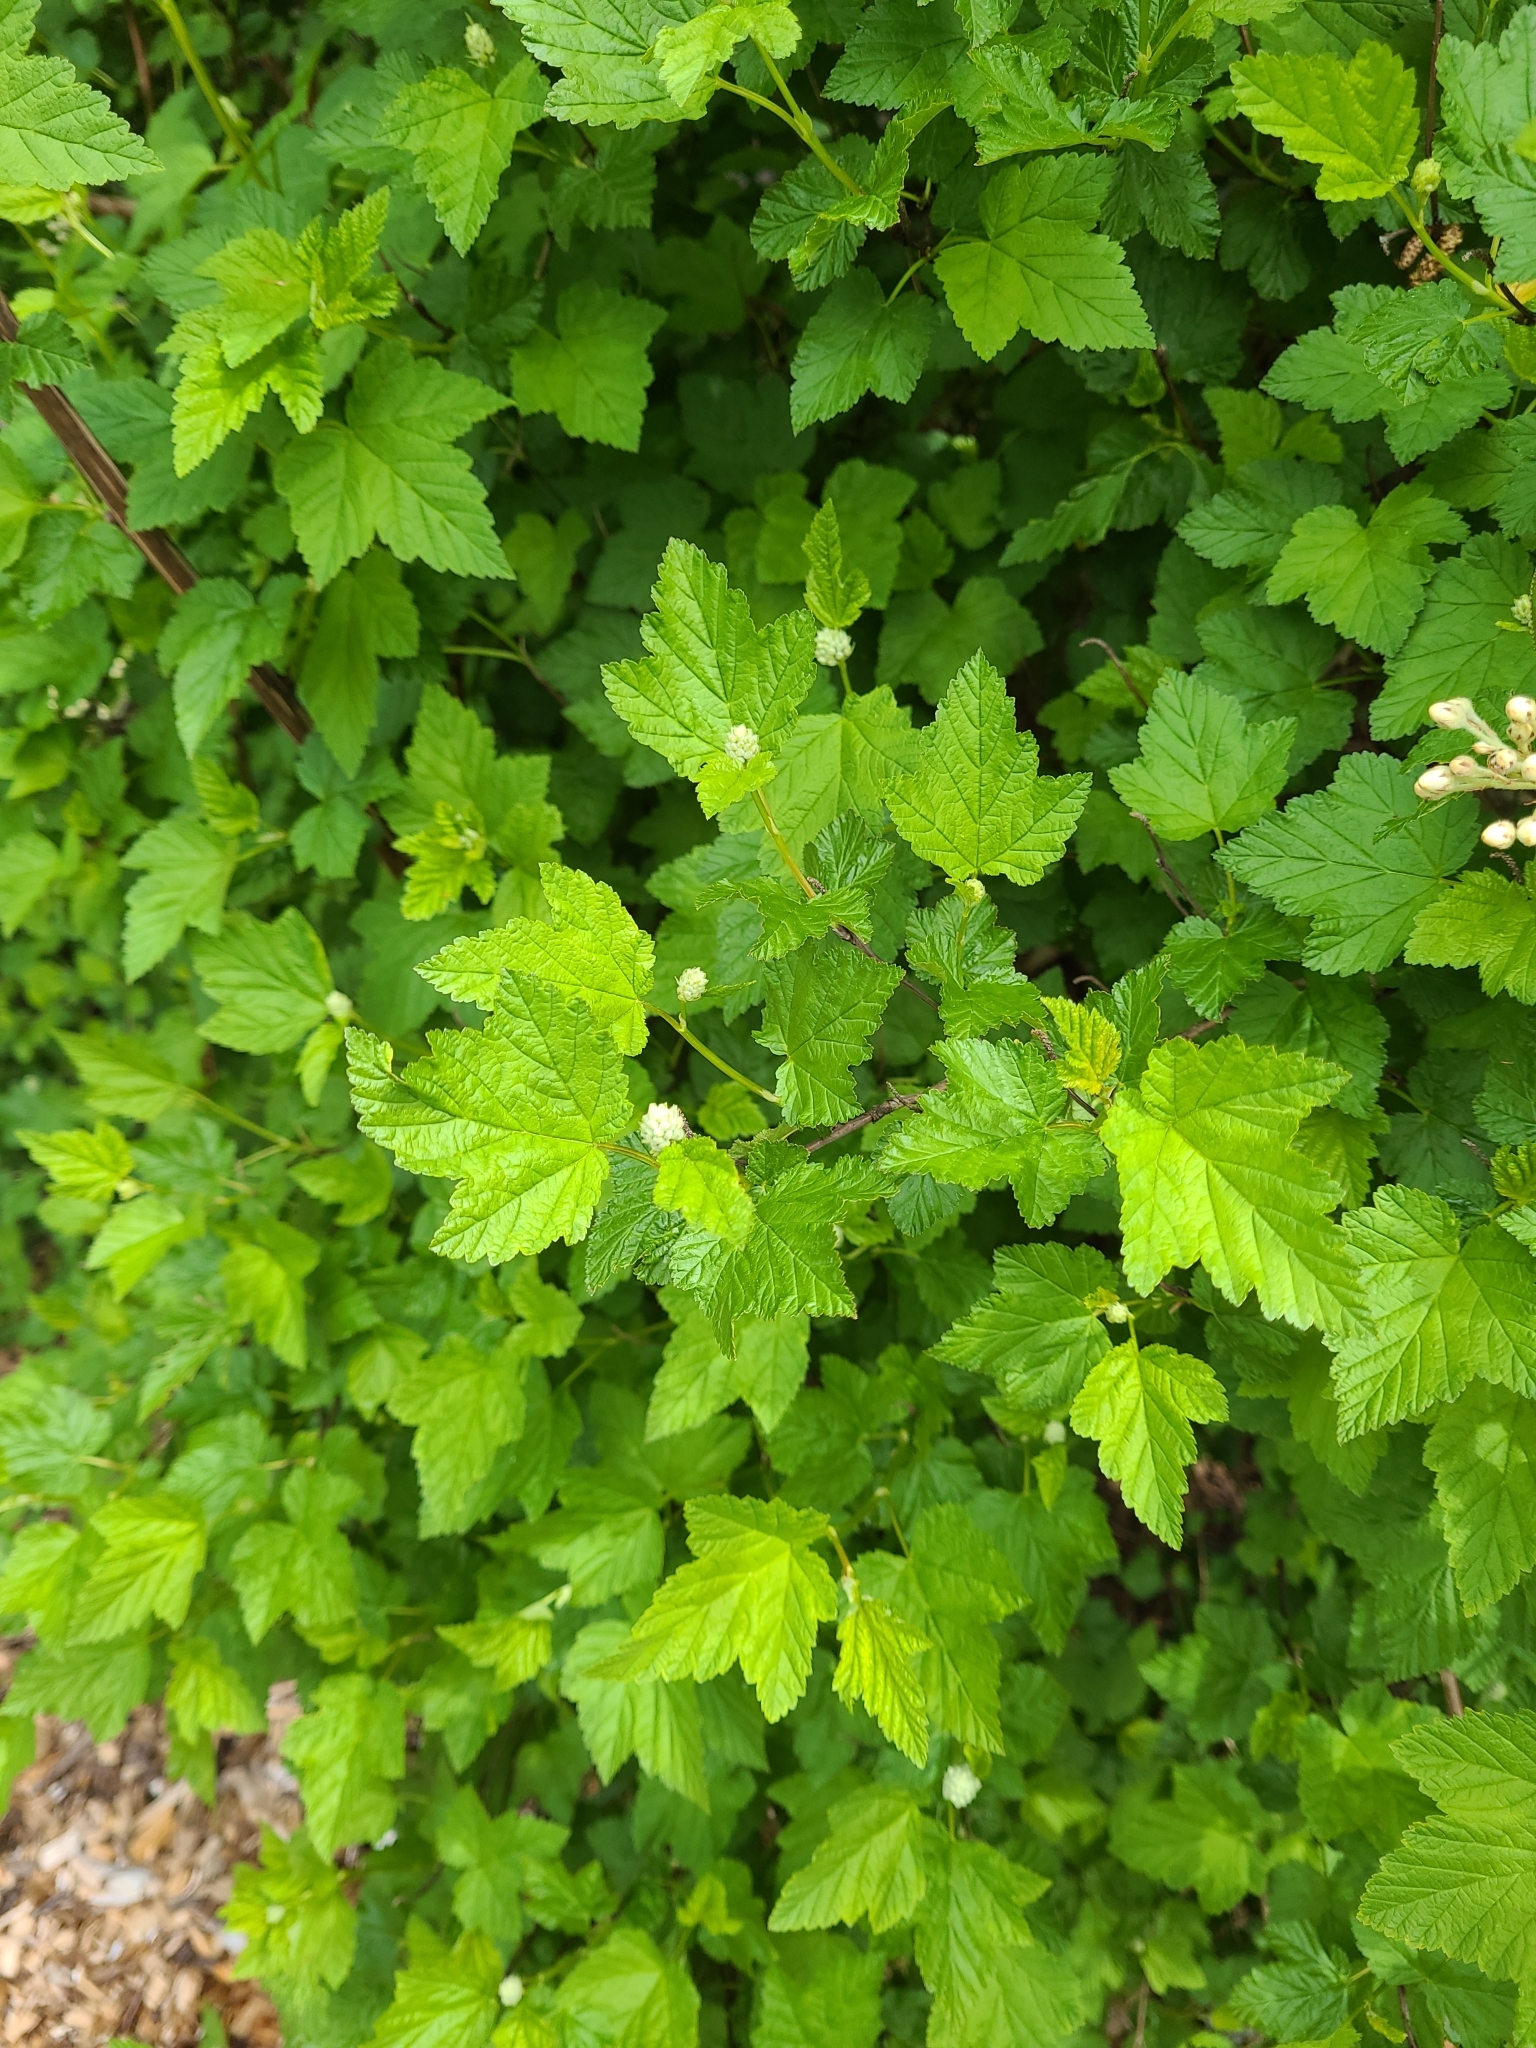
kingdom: Plantae
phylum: Tracheophyta
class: Magnoliopsida
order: Rosales
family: Rosaceae
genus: Physocarpus
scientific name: Physocarpus capitatus
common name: Pacific ninebark
